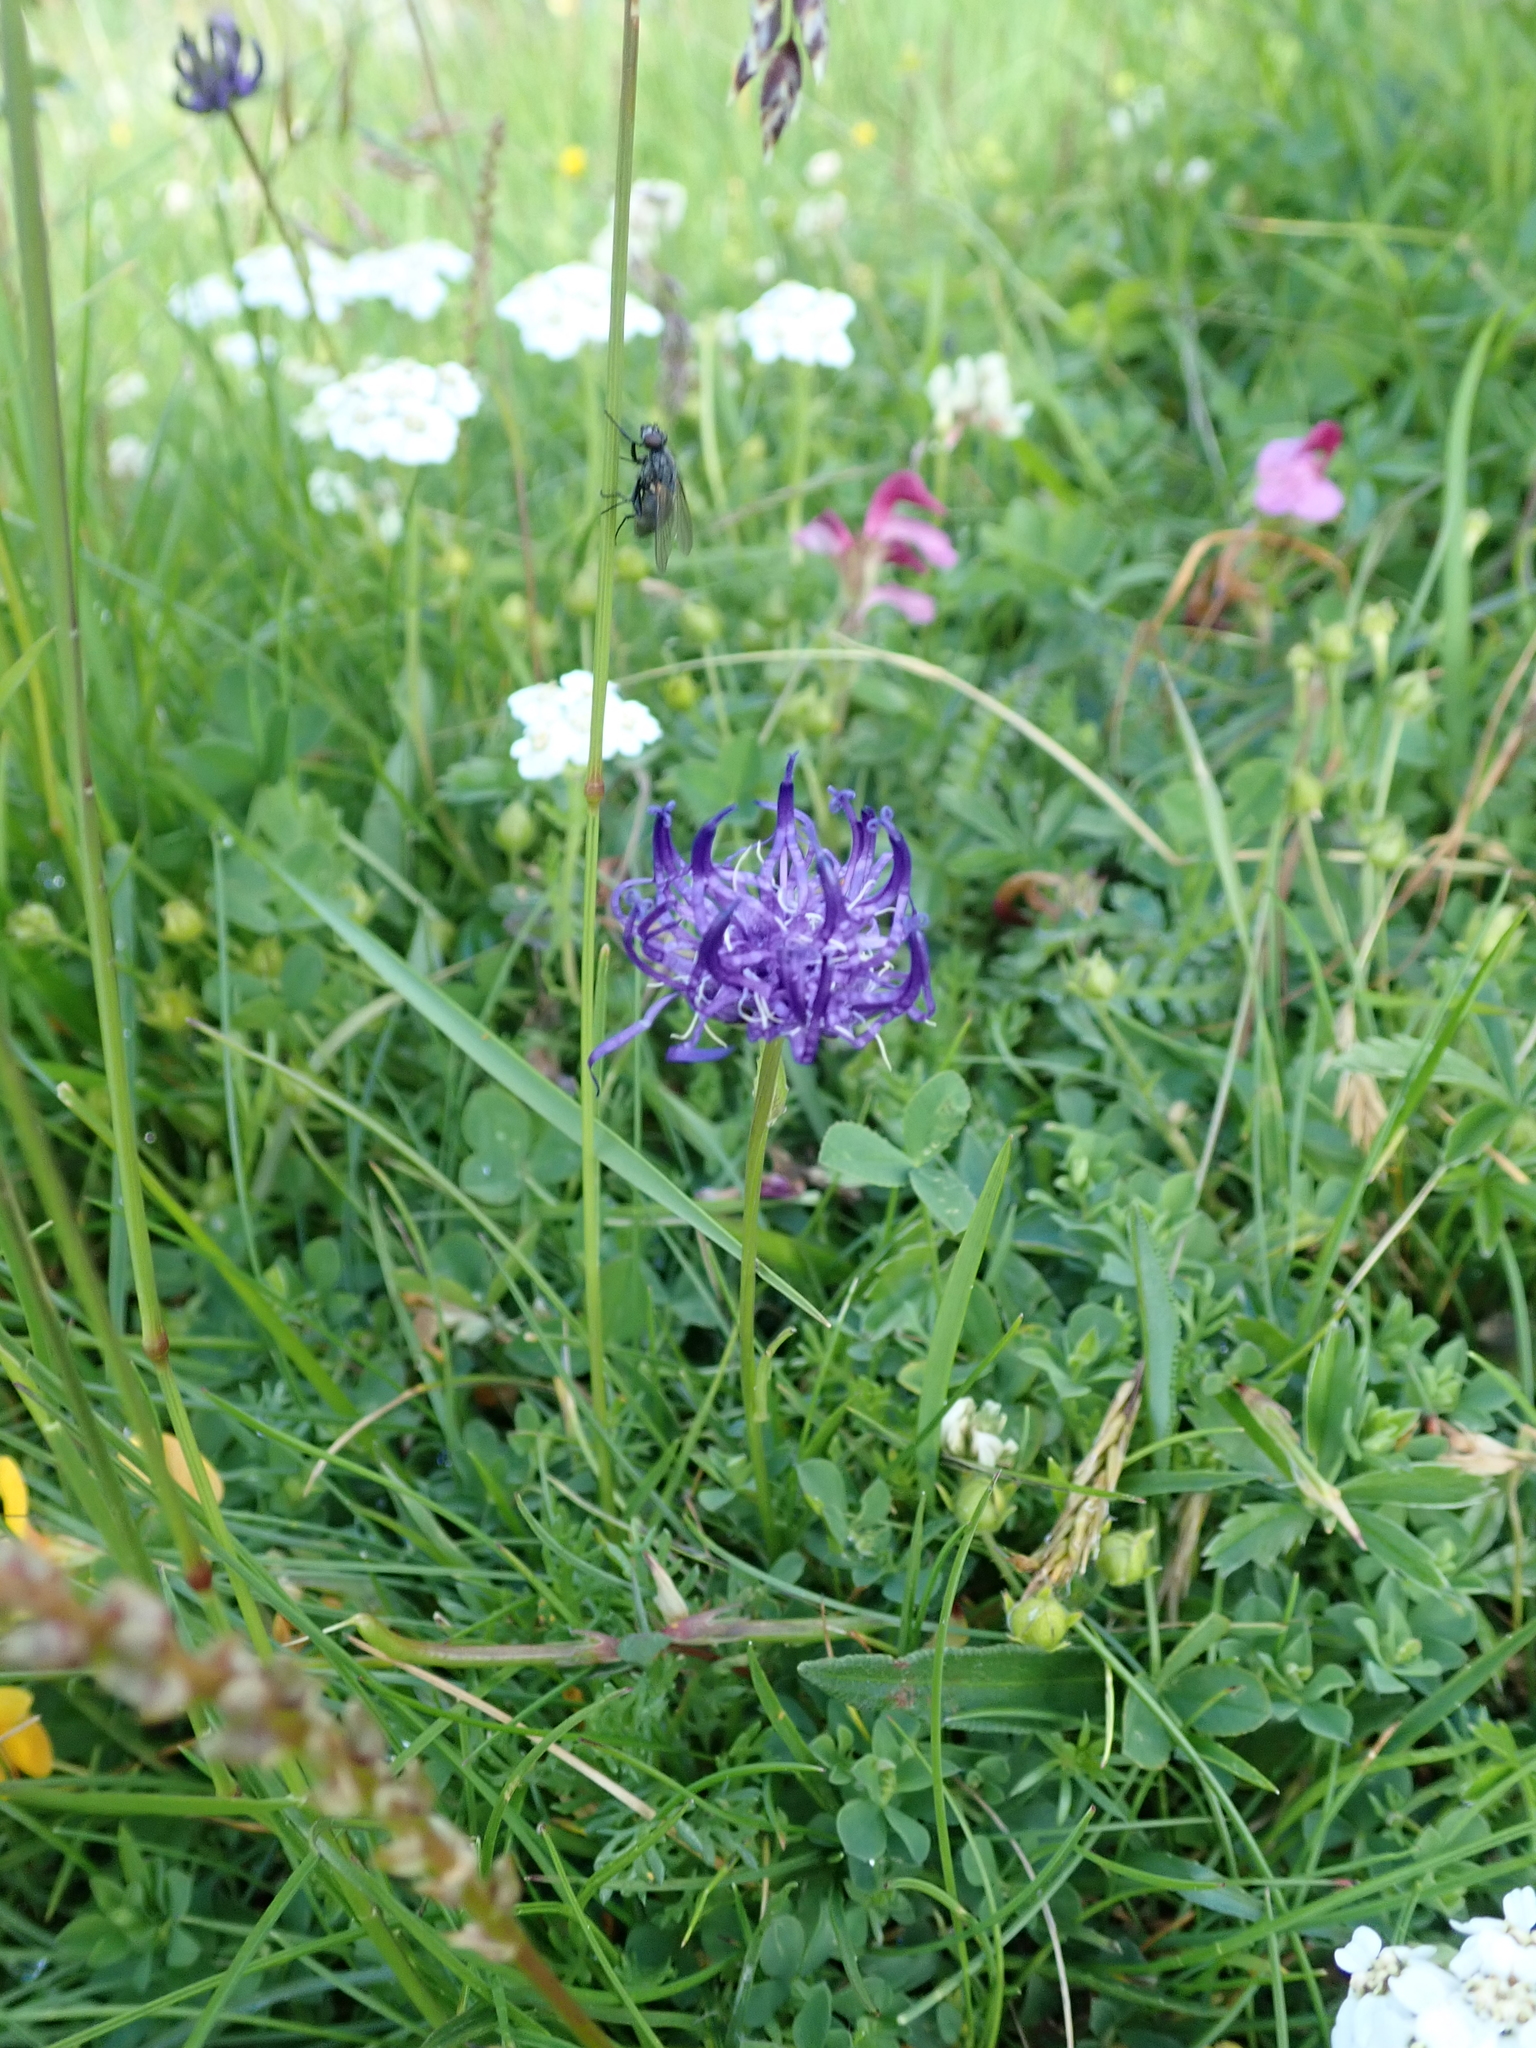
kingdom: Plantae
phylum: Tracheophyta
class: Magnoliopsida
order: Asterales
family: Campanulaceae
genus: Phyteuma
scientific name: Phyteuma hemisphaericum
